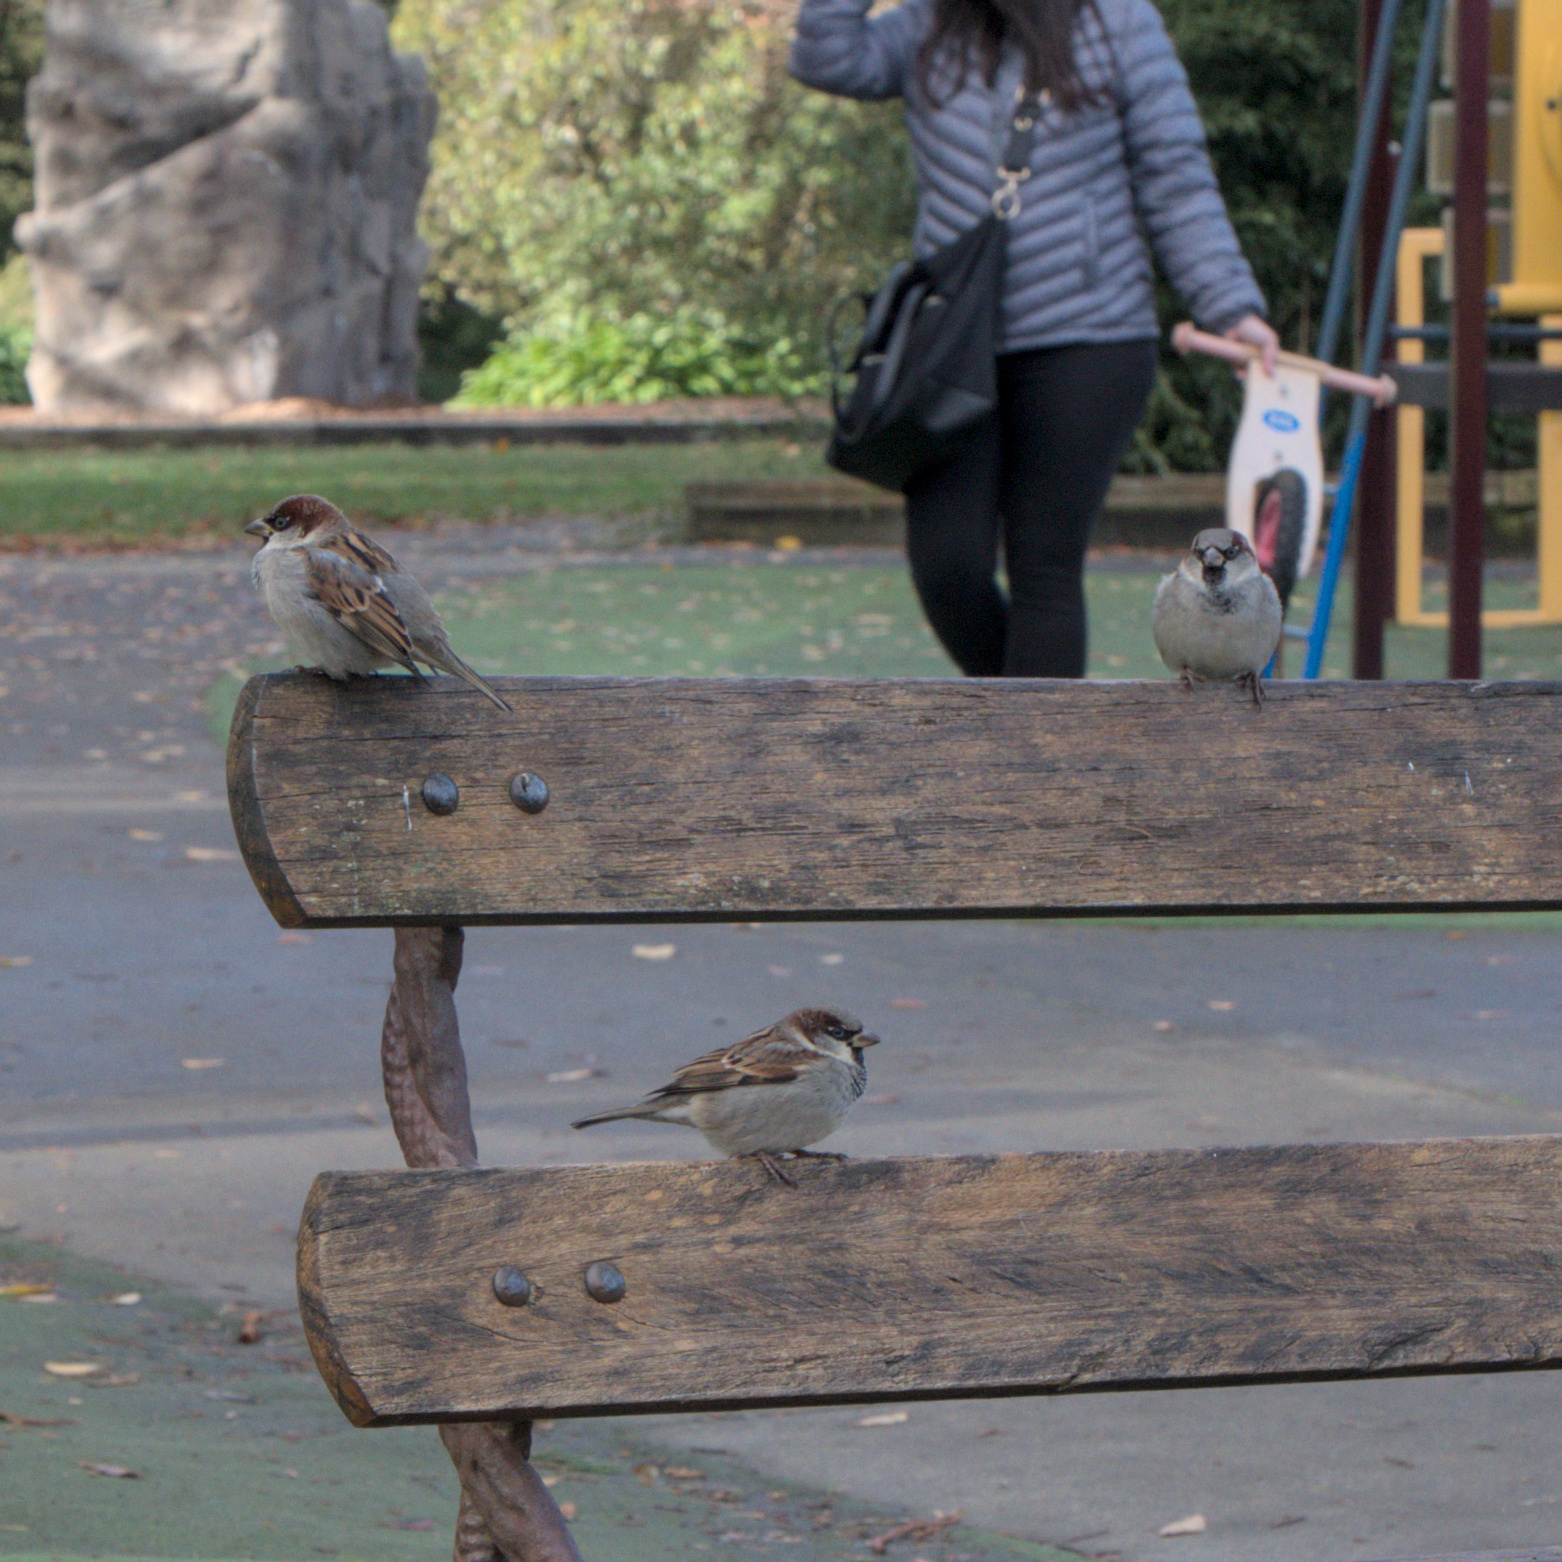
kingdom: Animalia
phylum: Chordata
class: Aves
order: Passeriformes
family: Passeridae
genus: Passer
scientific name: Passer domesticus
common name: House sparrow
